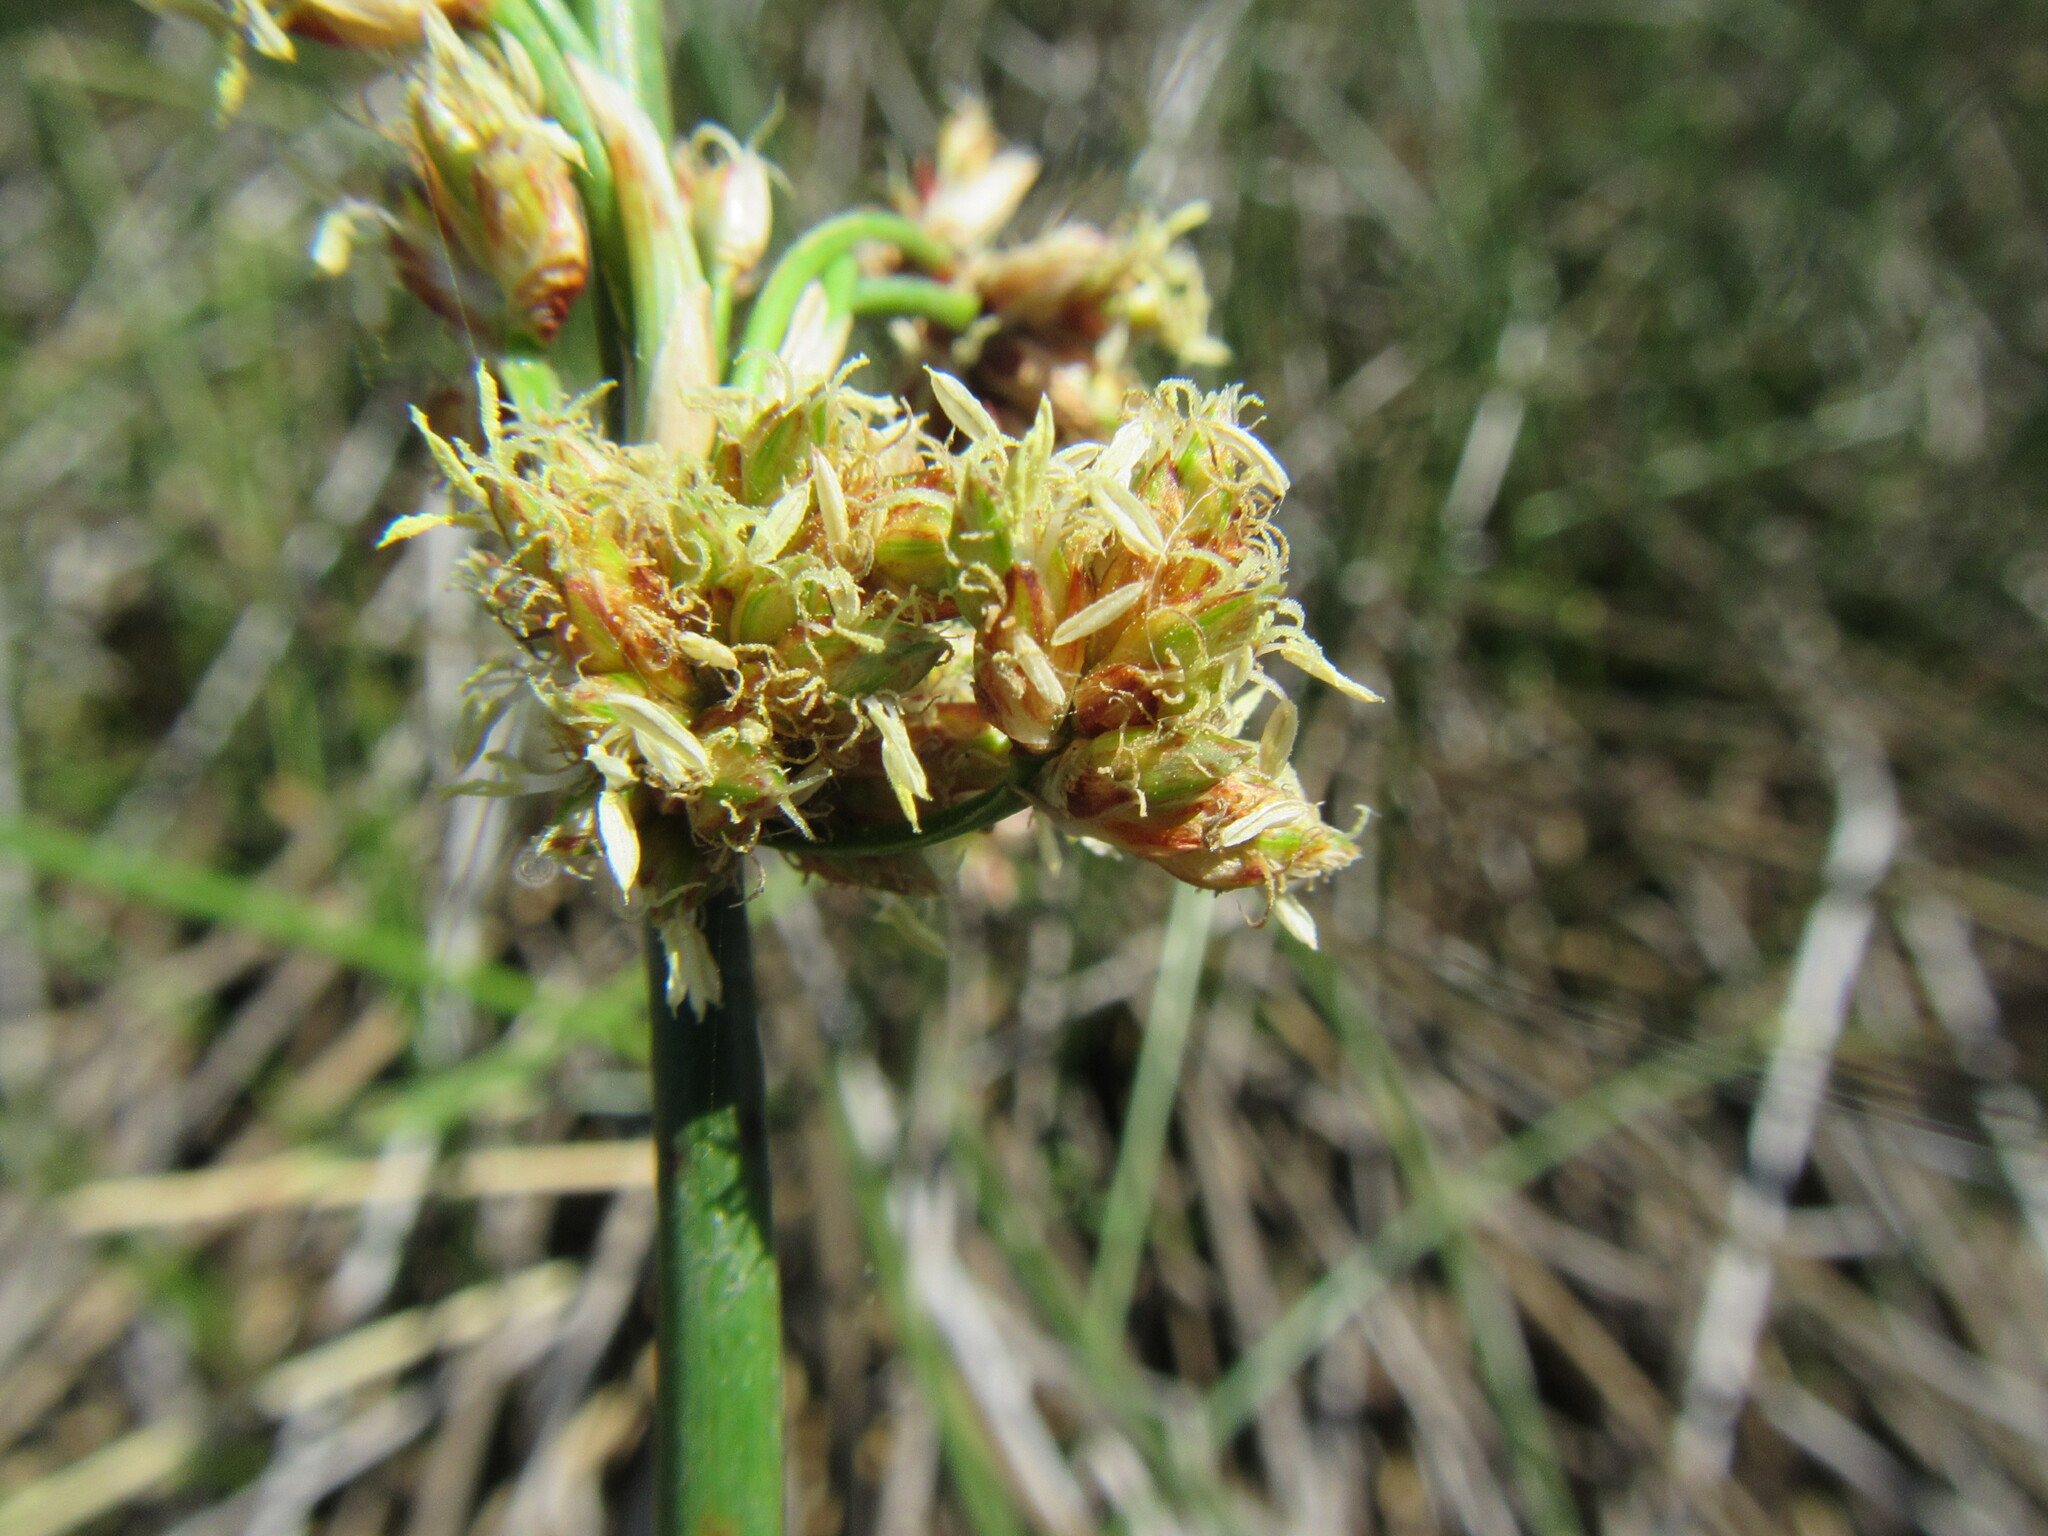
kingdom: Plantae
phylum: Tracheophyta
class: Liliopsida
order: Poales
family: Cyperaceae
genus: Schoenoplectiella
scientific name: Schoenoplectiella corymbosa
